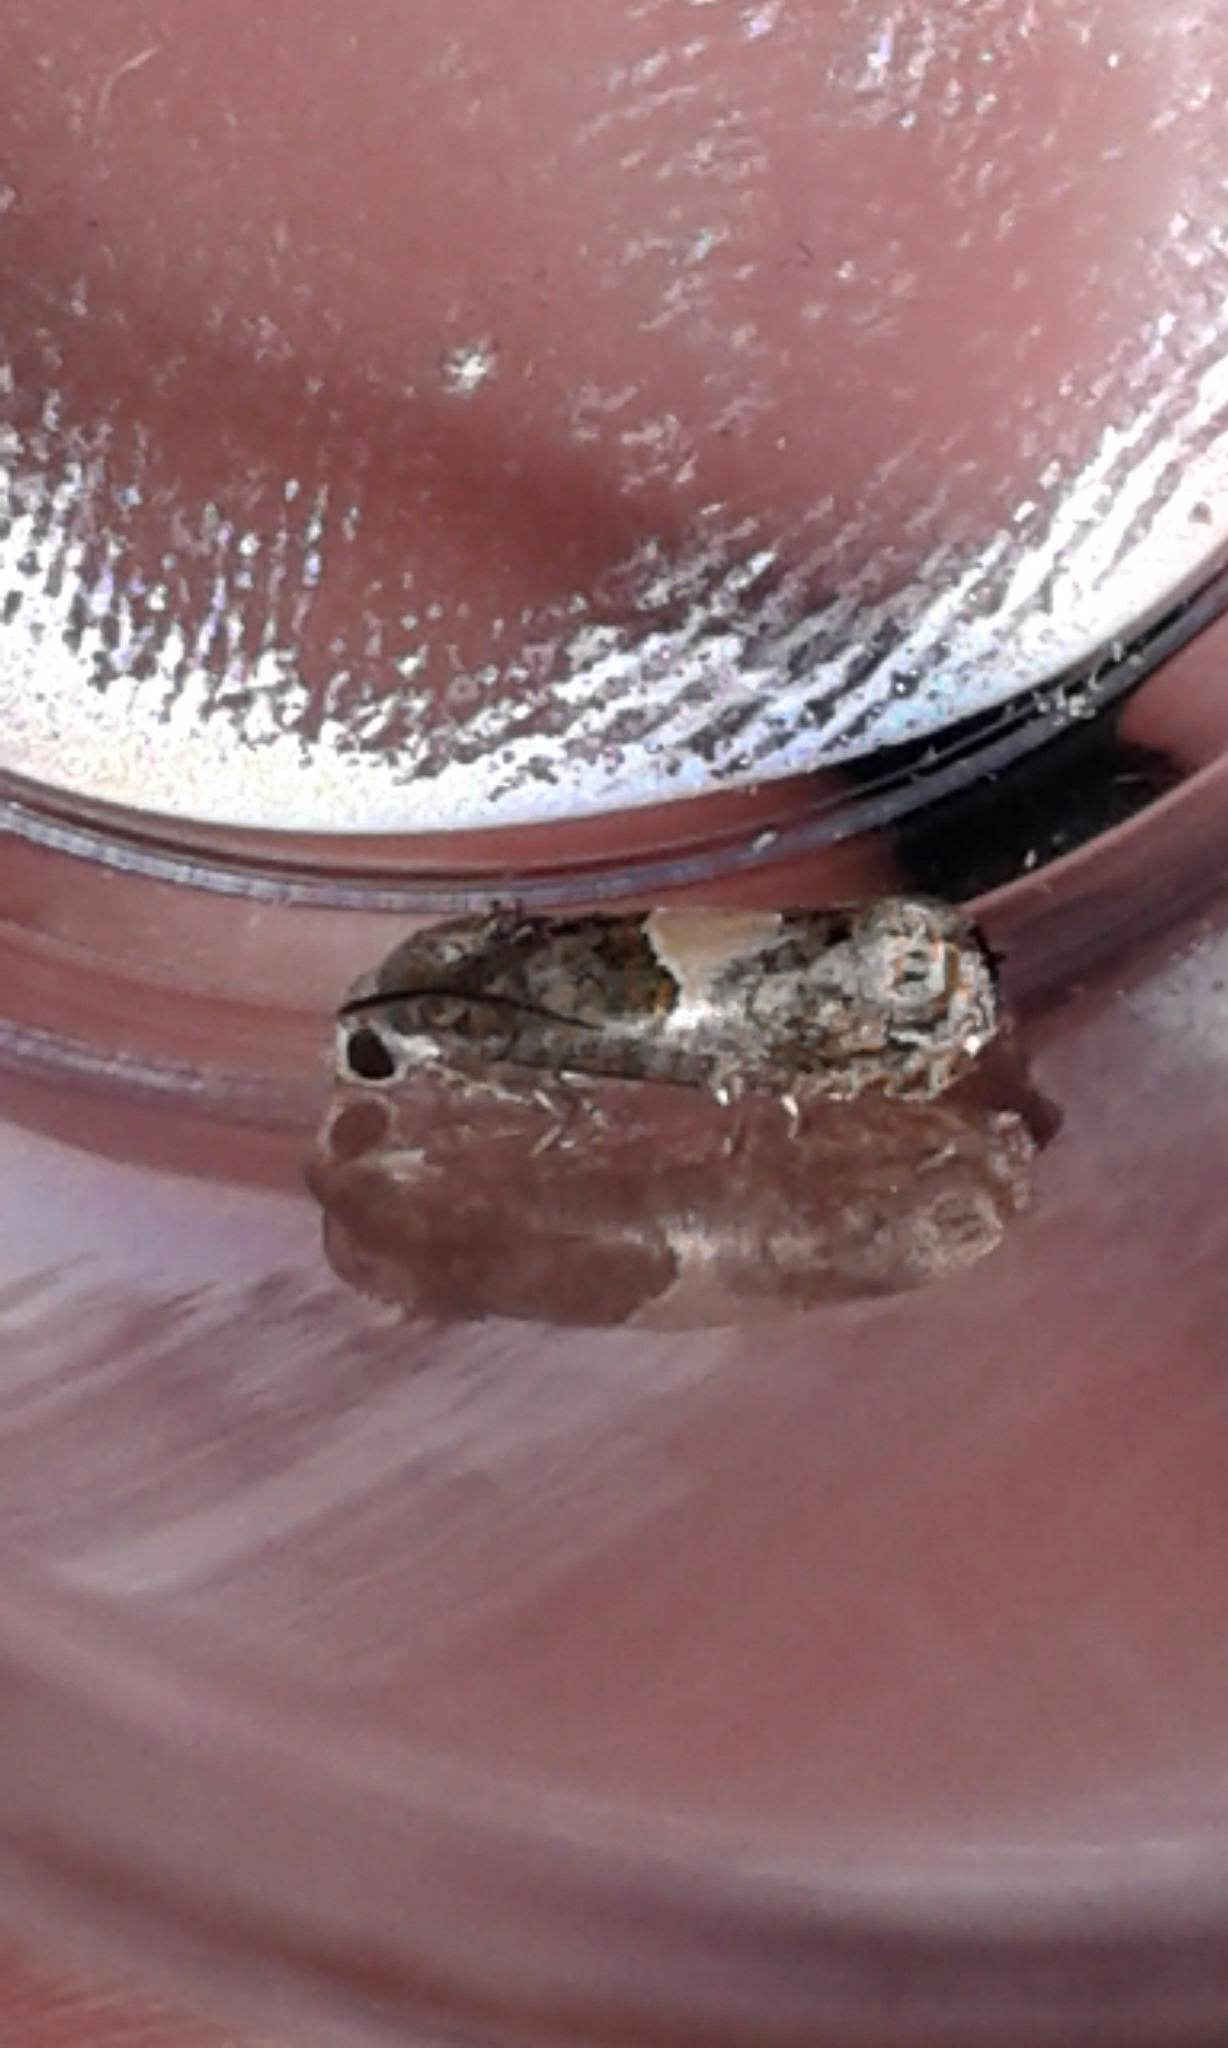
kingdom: Animalia
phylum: Arthropoda
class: Insecta
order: Lepidoptera
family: Tortricidae
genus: Epiblema
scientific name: Epiblema glenni
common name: Glenn's epiblema
